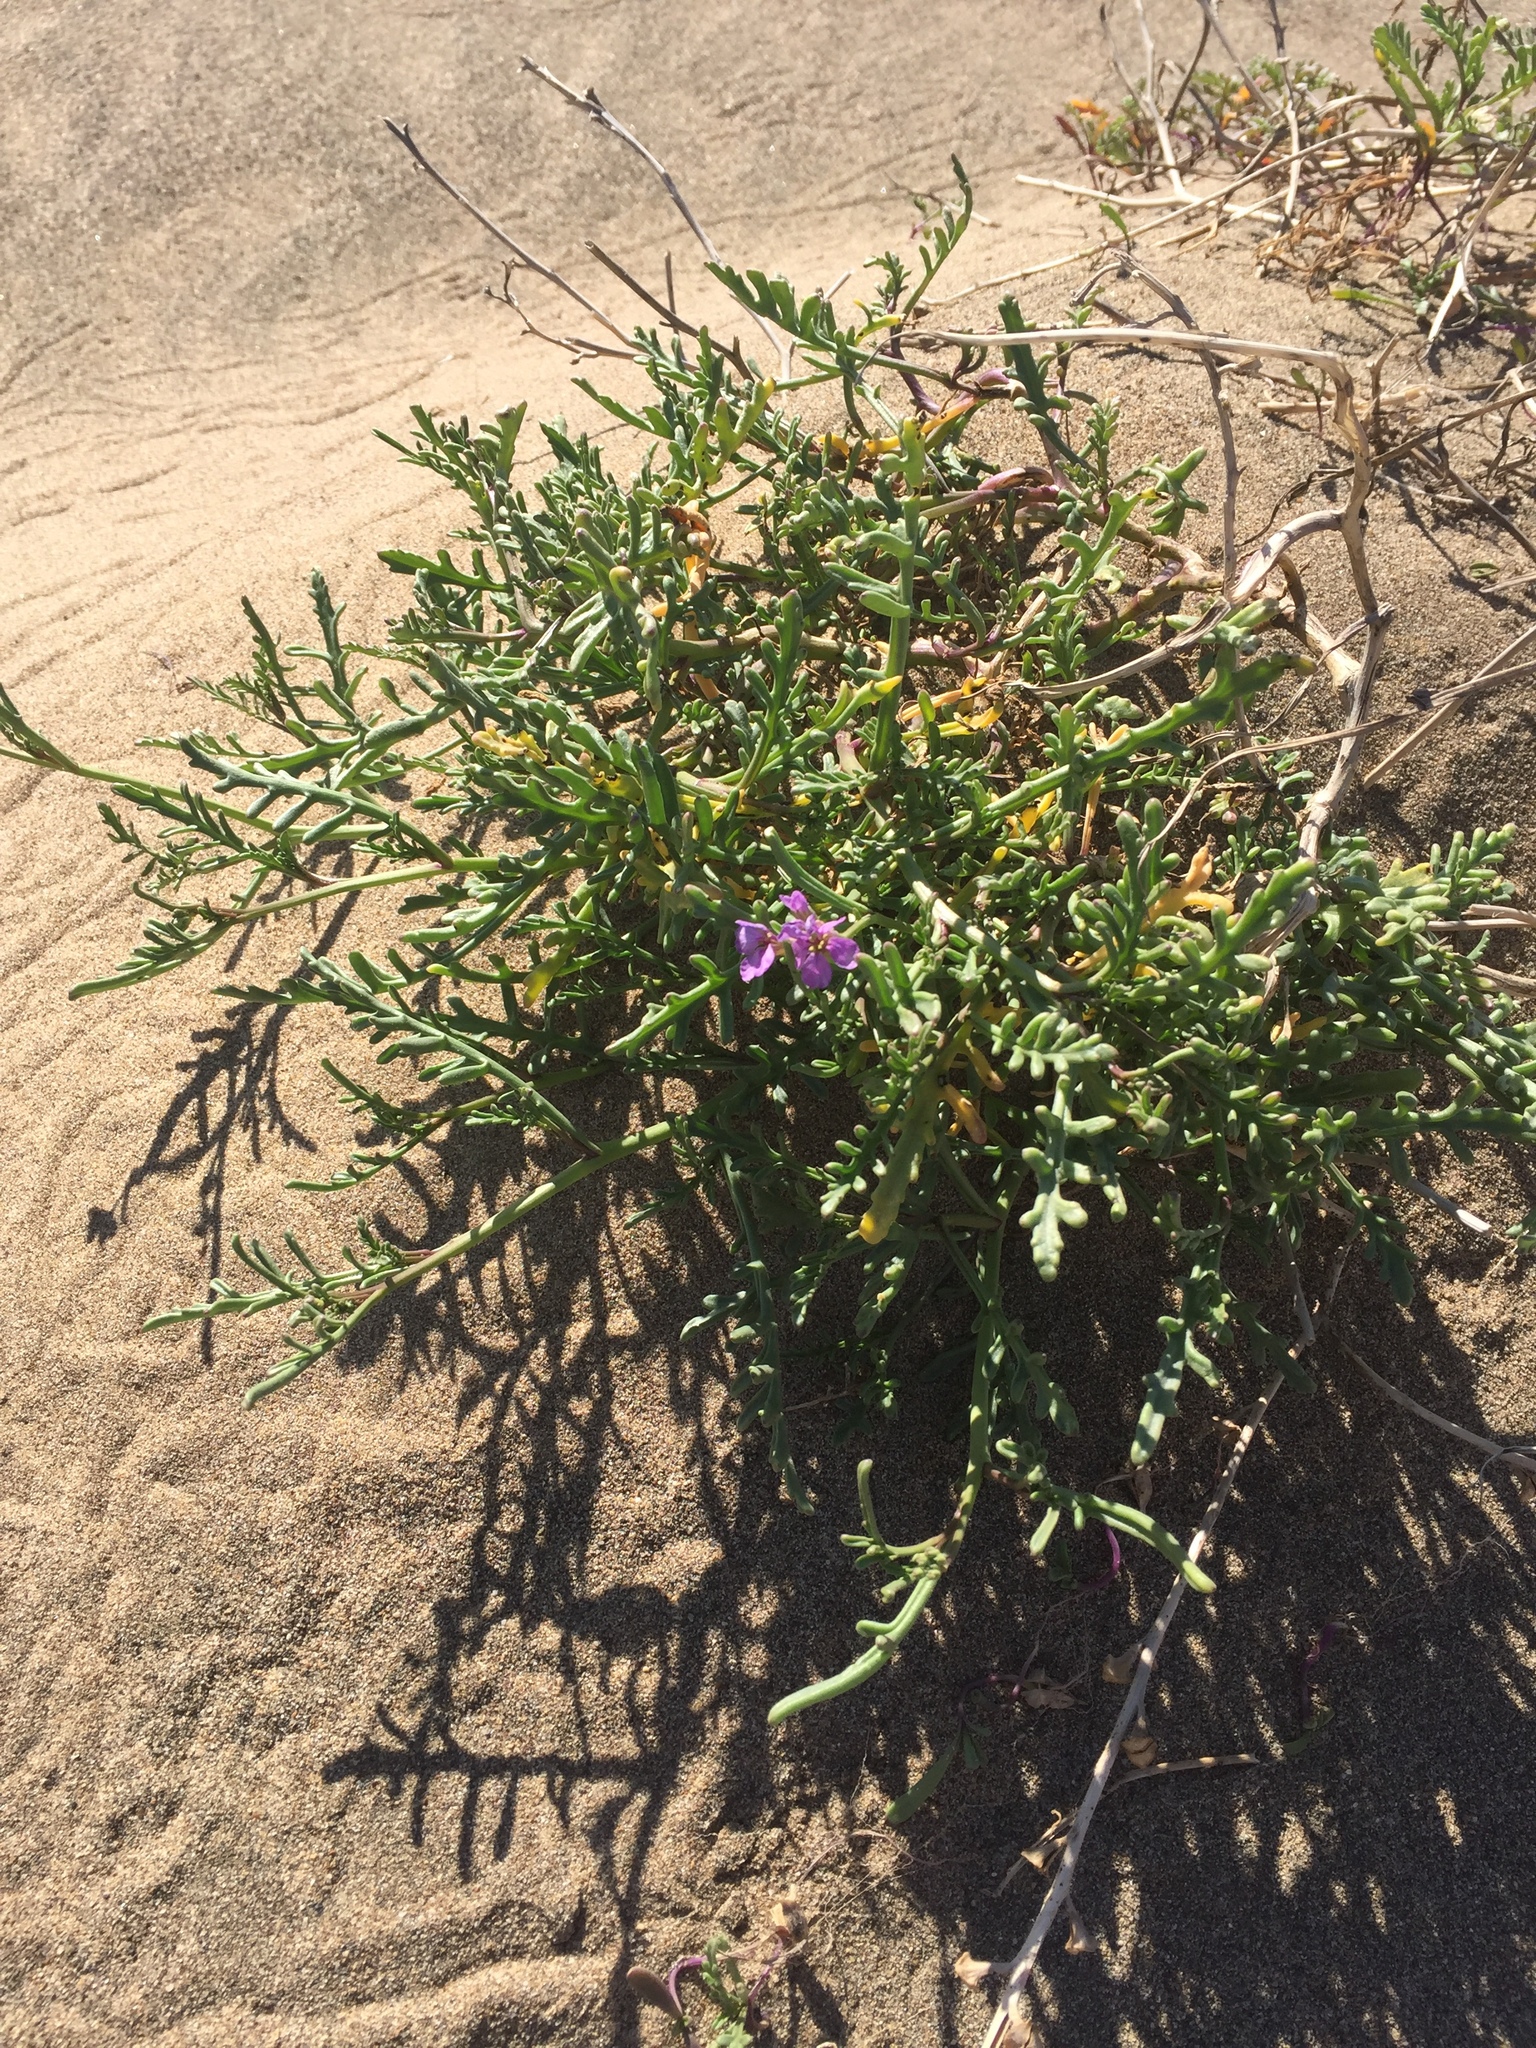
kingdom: Plantae
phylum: Tracheophyta
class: Magnoliopsida
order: Brassicales
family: Brassicaceae
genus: Cakile
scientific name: Cakile maritima
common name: Sea rocket
